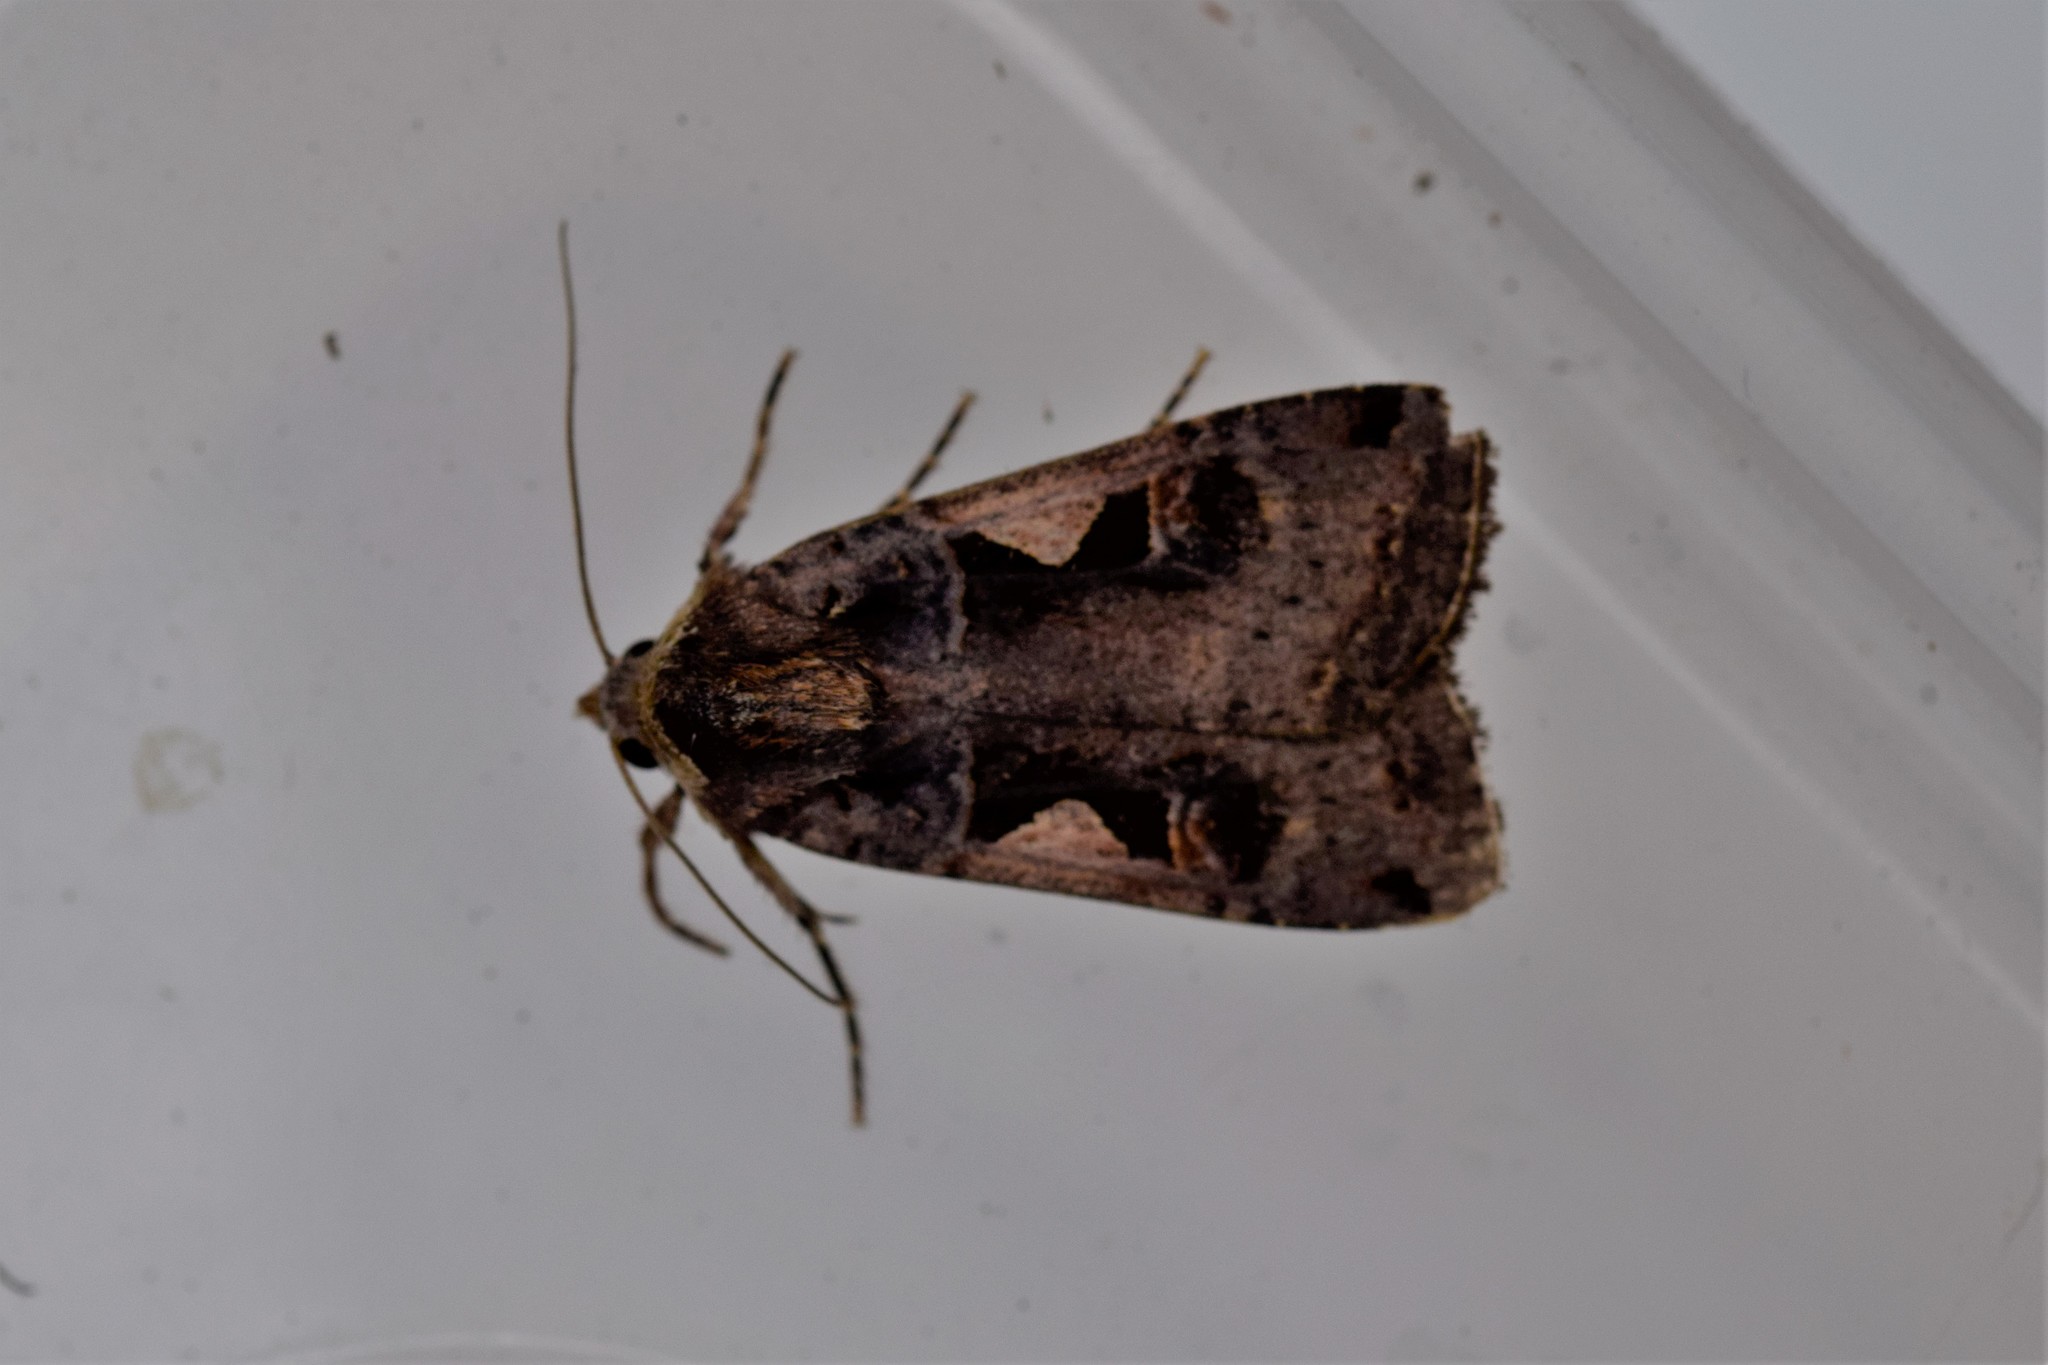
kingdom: Animalia
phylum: Arthropoda
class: Insecta
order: Lepidoptera
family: Noctuidae
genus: Xestia
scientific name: Xestia c-nigrum
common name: Setaceous hebrew character
